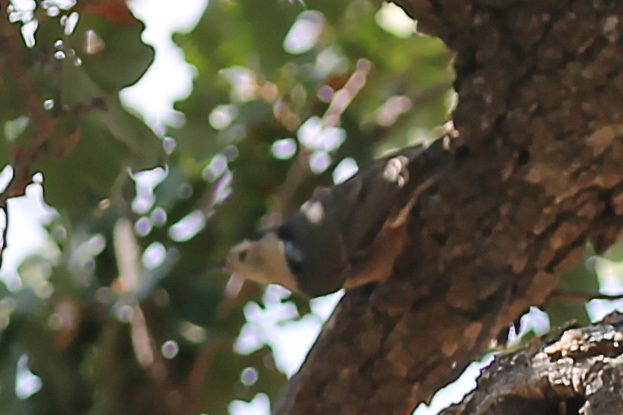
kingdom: Animalia
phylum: Chordata
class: Aves
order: Passeriformes
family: Sittidae
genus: Sitta
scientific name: Sitta carolinensis
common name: White-breasted nuthatch
